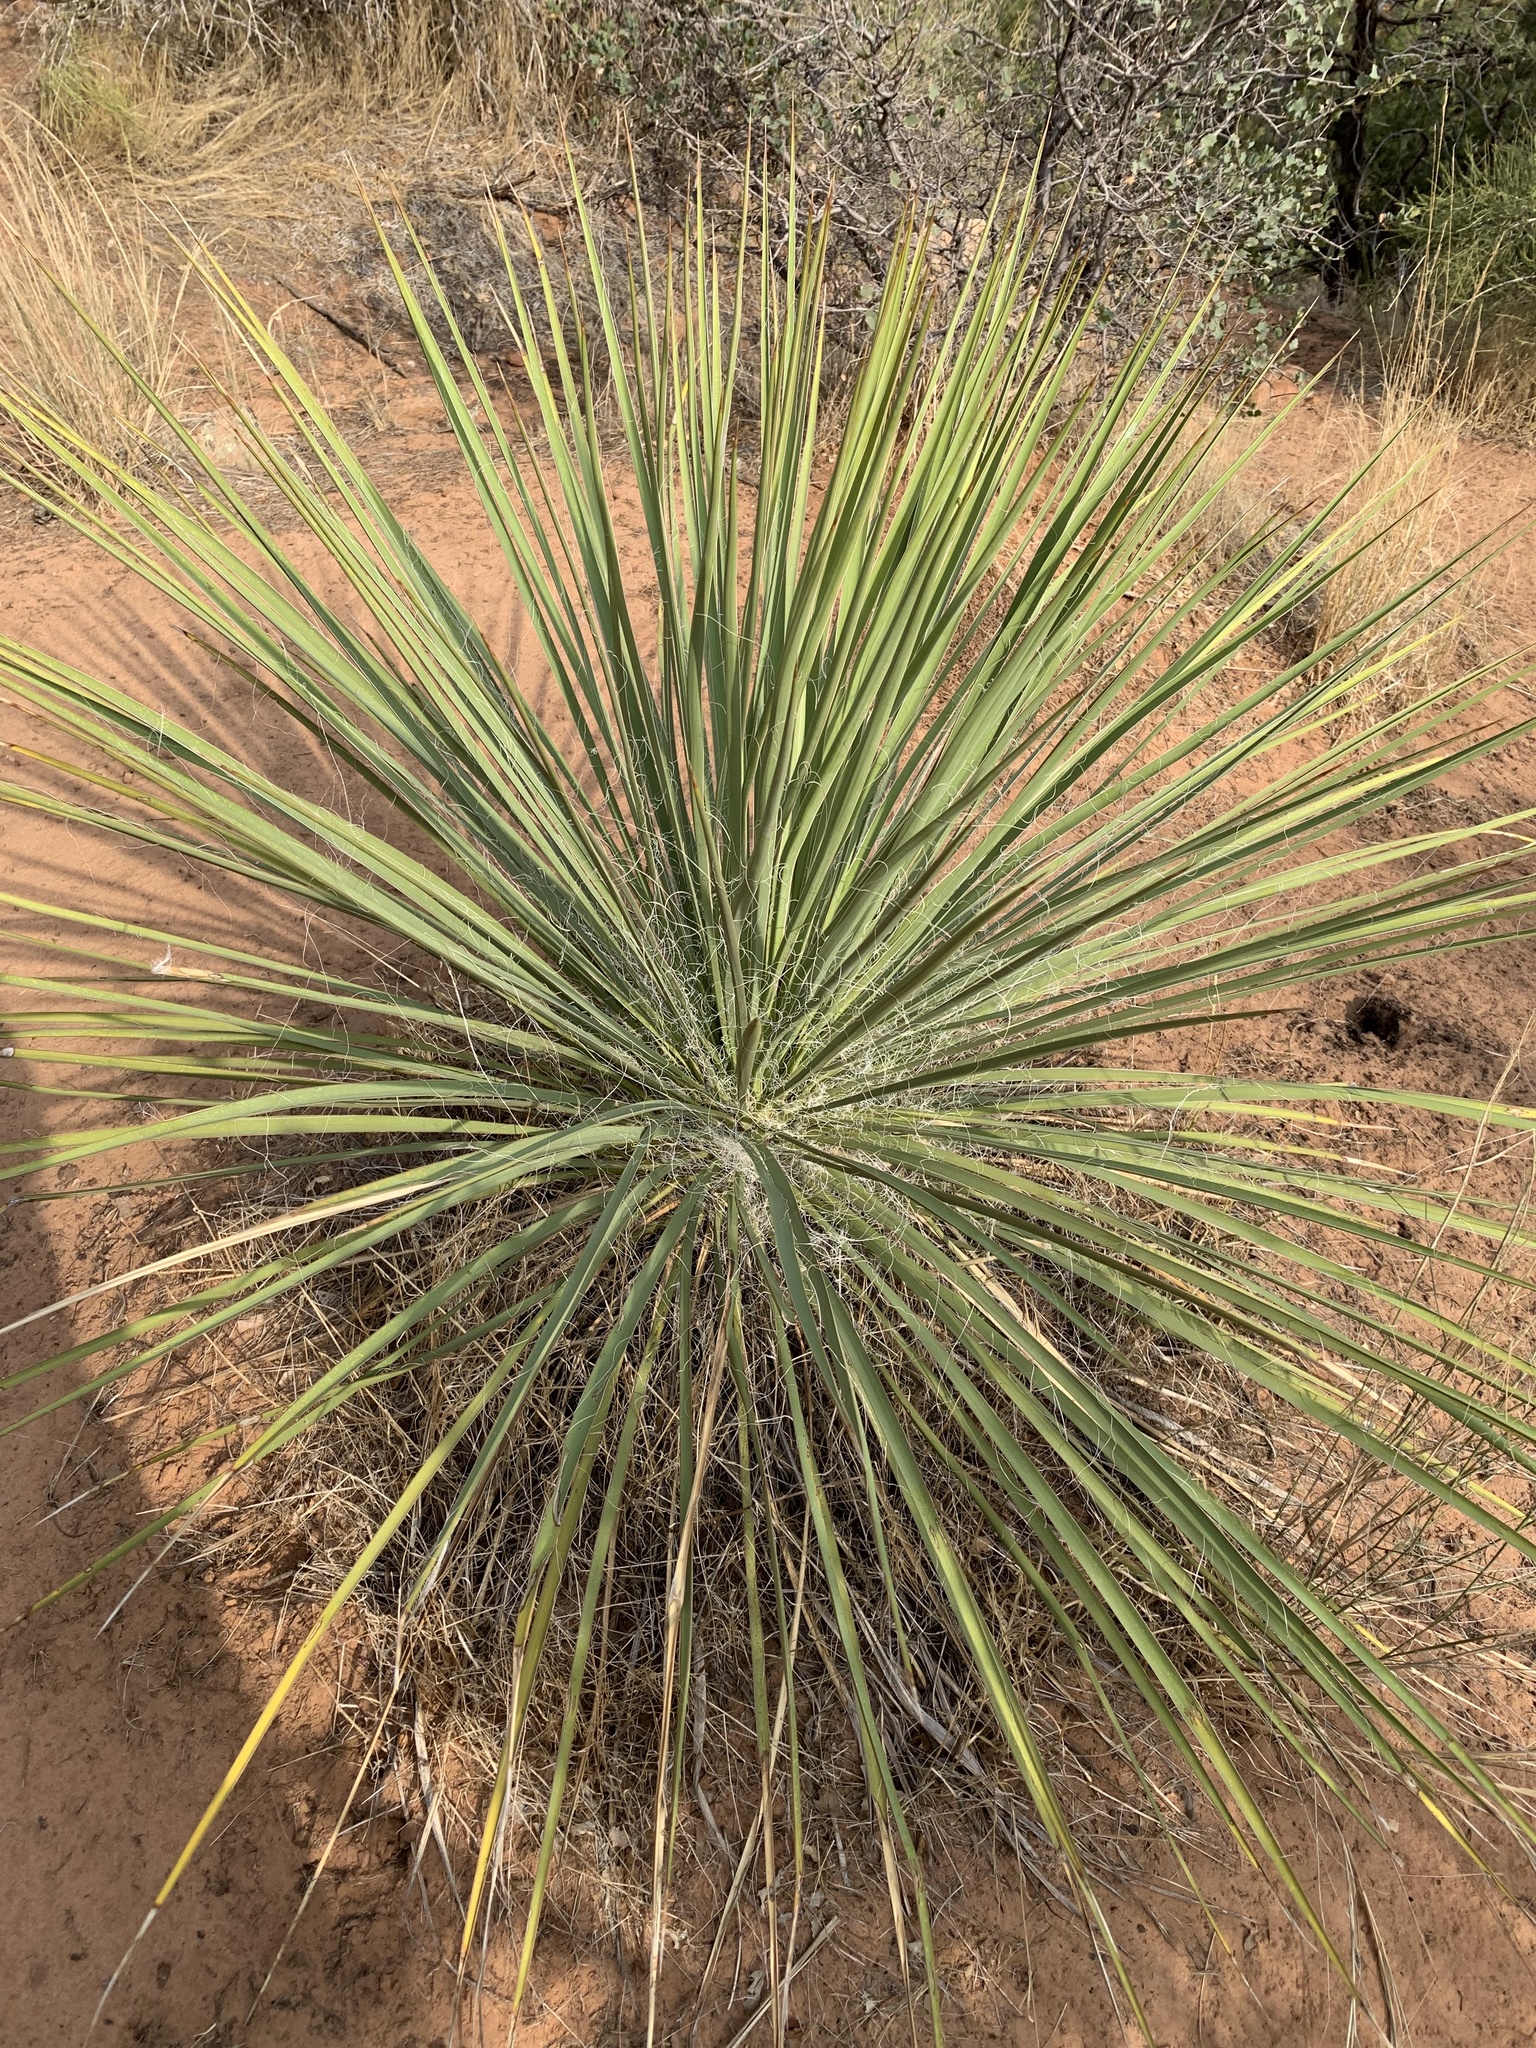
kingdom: Plantae
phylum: Tracheophyta
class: Magnoliopsida
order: Caryophyllales
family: Cactaceae
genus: Cylindropuntia
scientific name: Cylindropuntia whipplei
